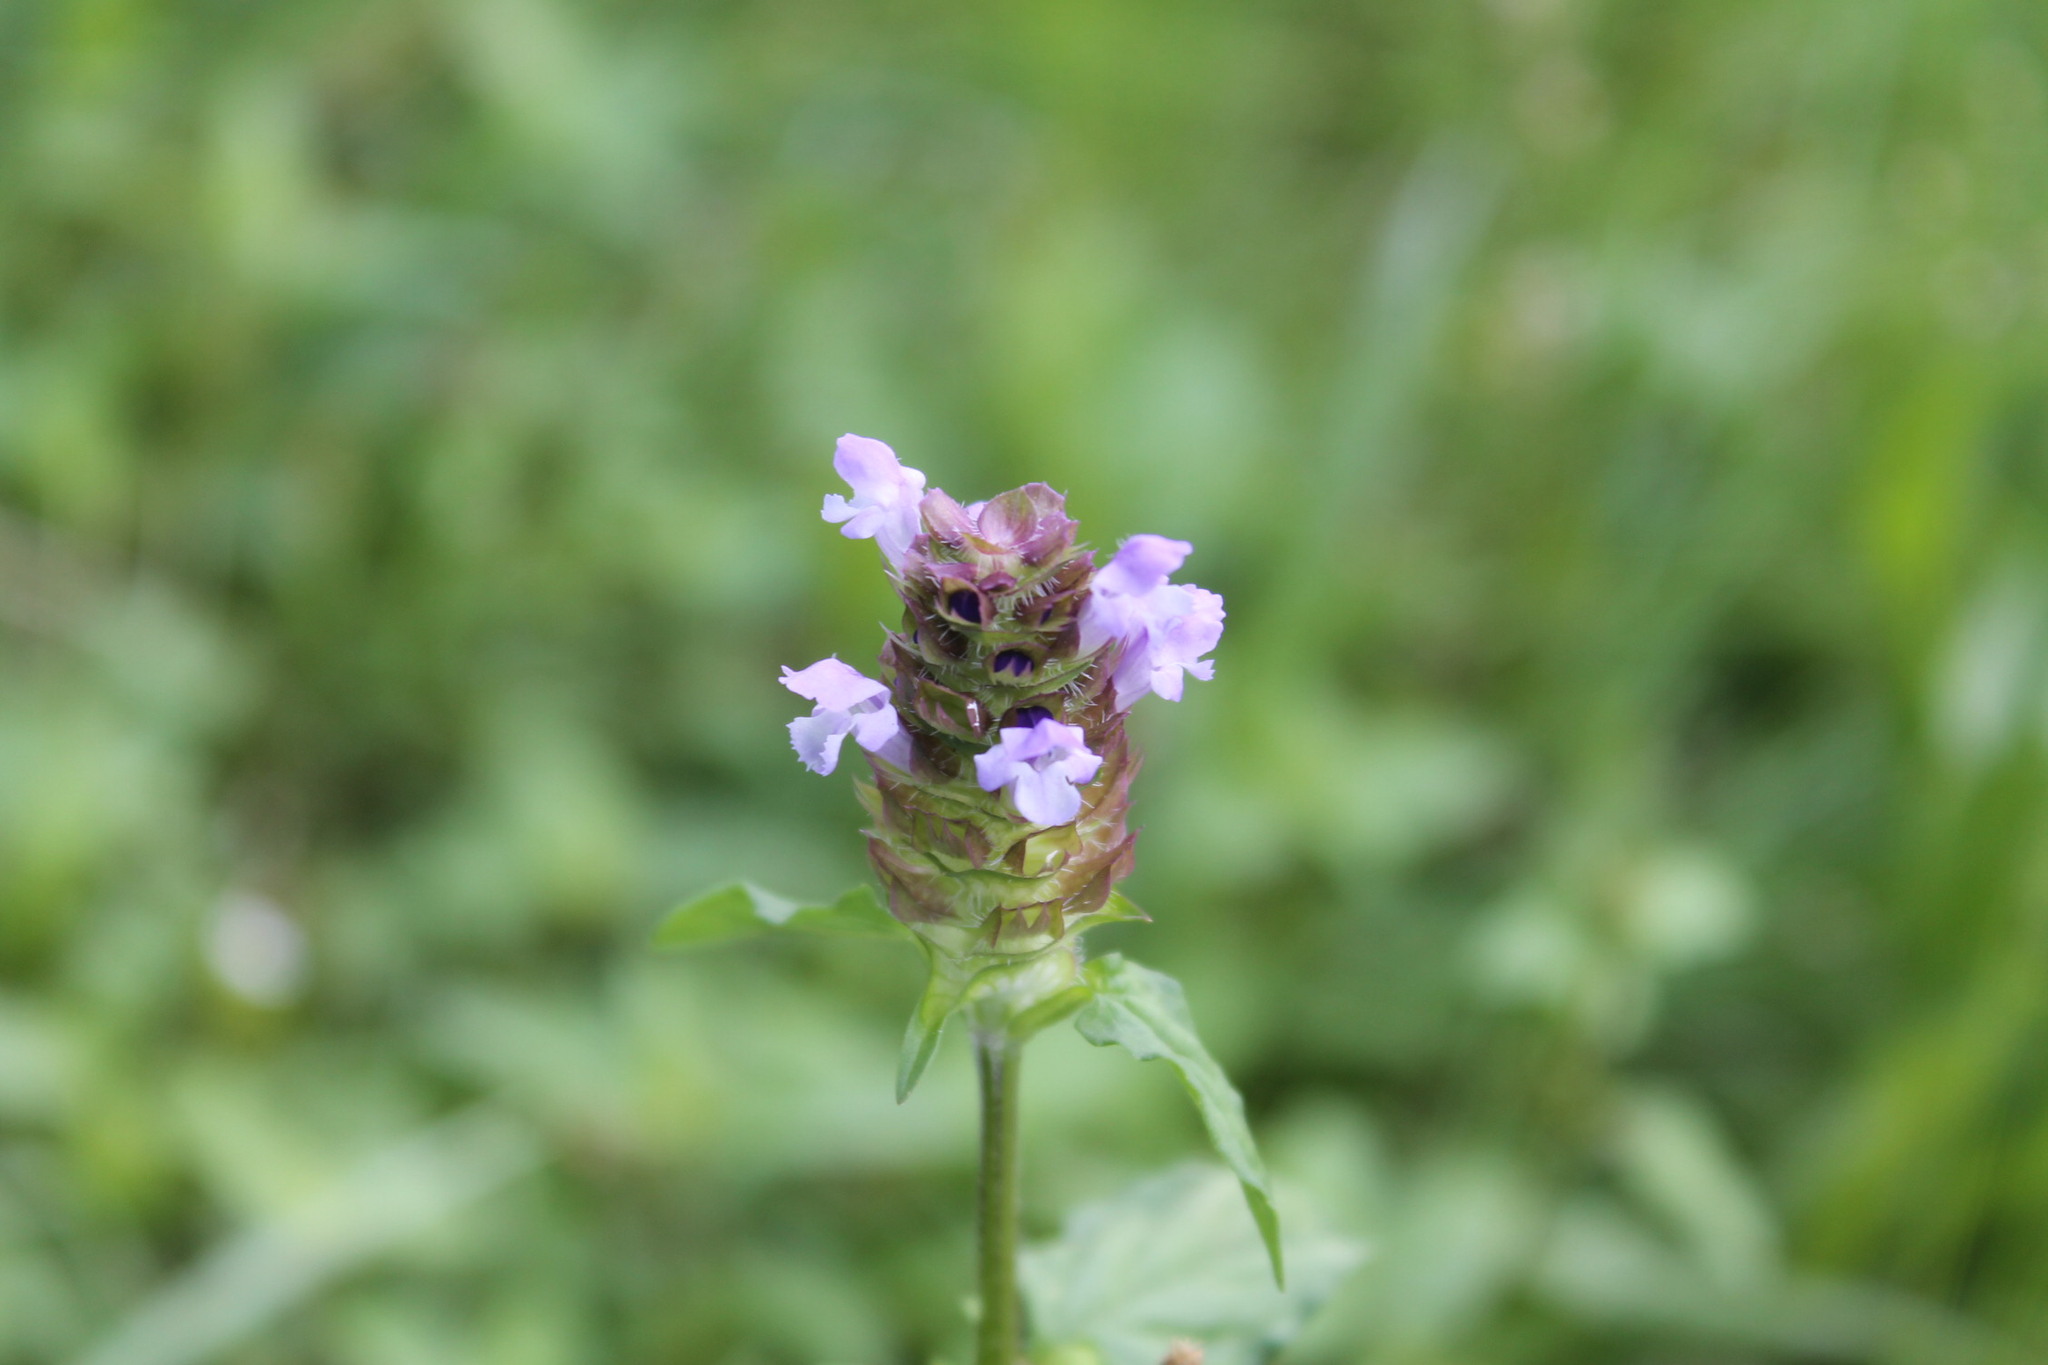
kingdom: Plantae
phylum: Tracheophyta
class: Magnoliopsida
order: Lamiales
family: Lamiaceae
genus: Prunella
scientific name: Prunella vulgaris
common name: Heal-all
